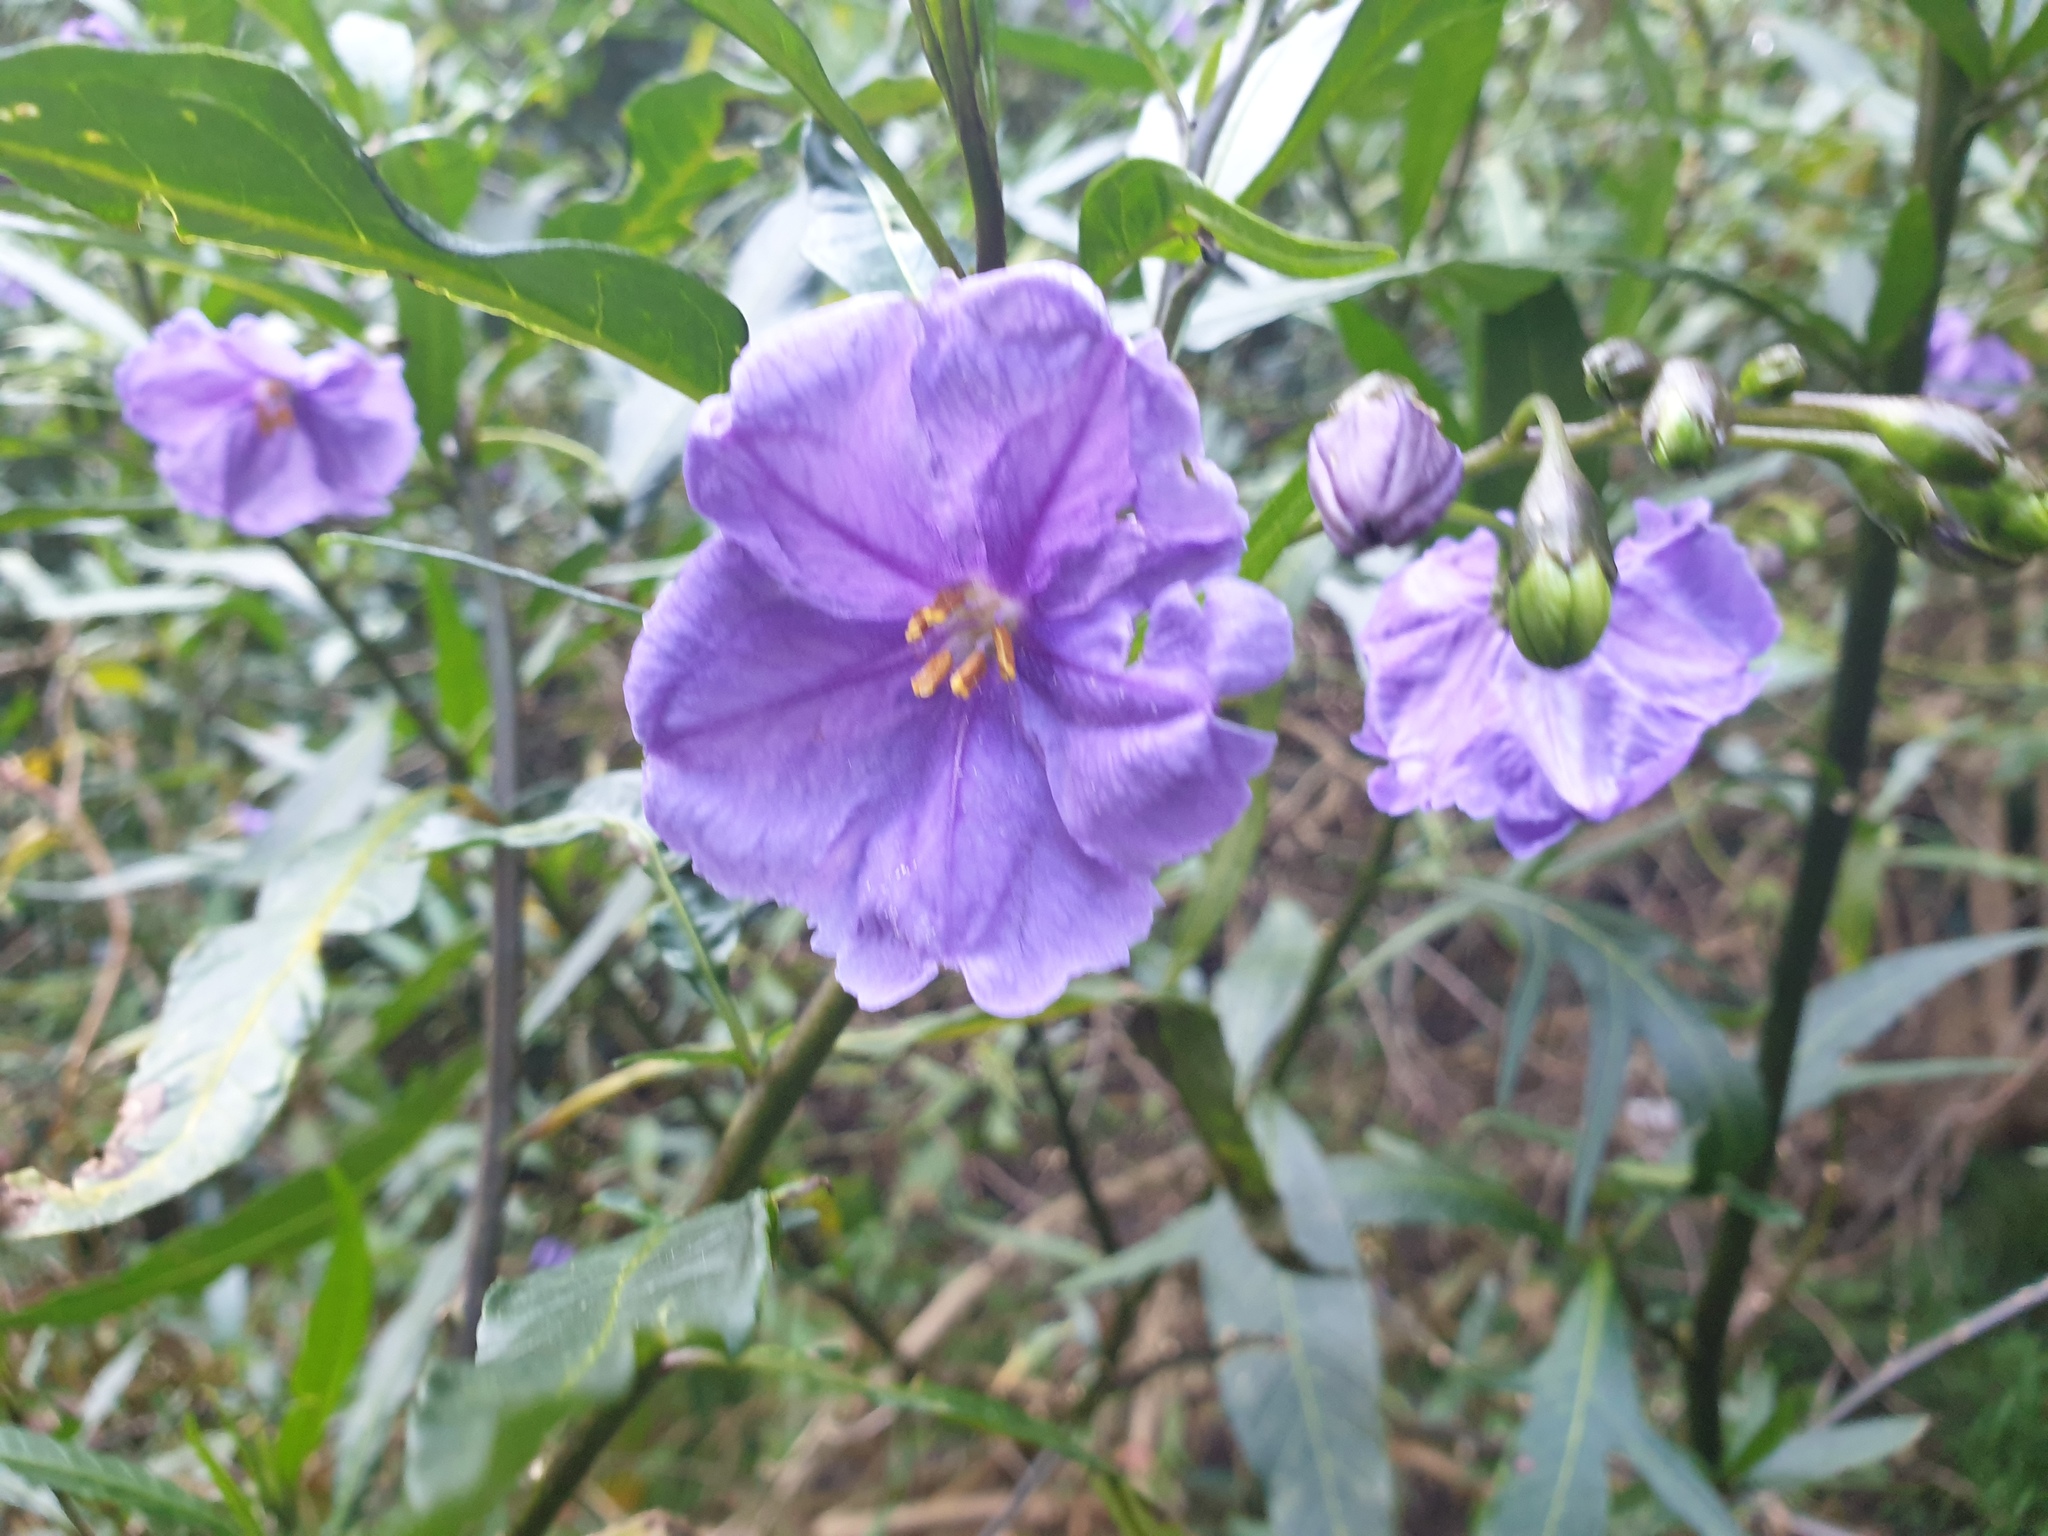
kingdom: Plantae
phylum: Tracheophyta
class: Magnoliopsida
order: Solanales
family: Solanaceae
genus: Solanum
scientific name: Solanum laciniatum
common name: Kangaroo-apple
